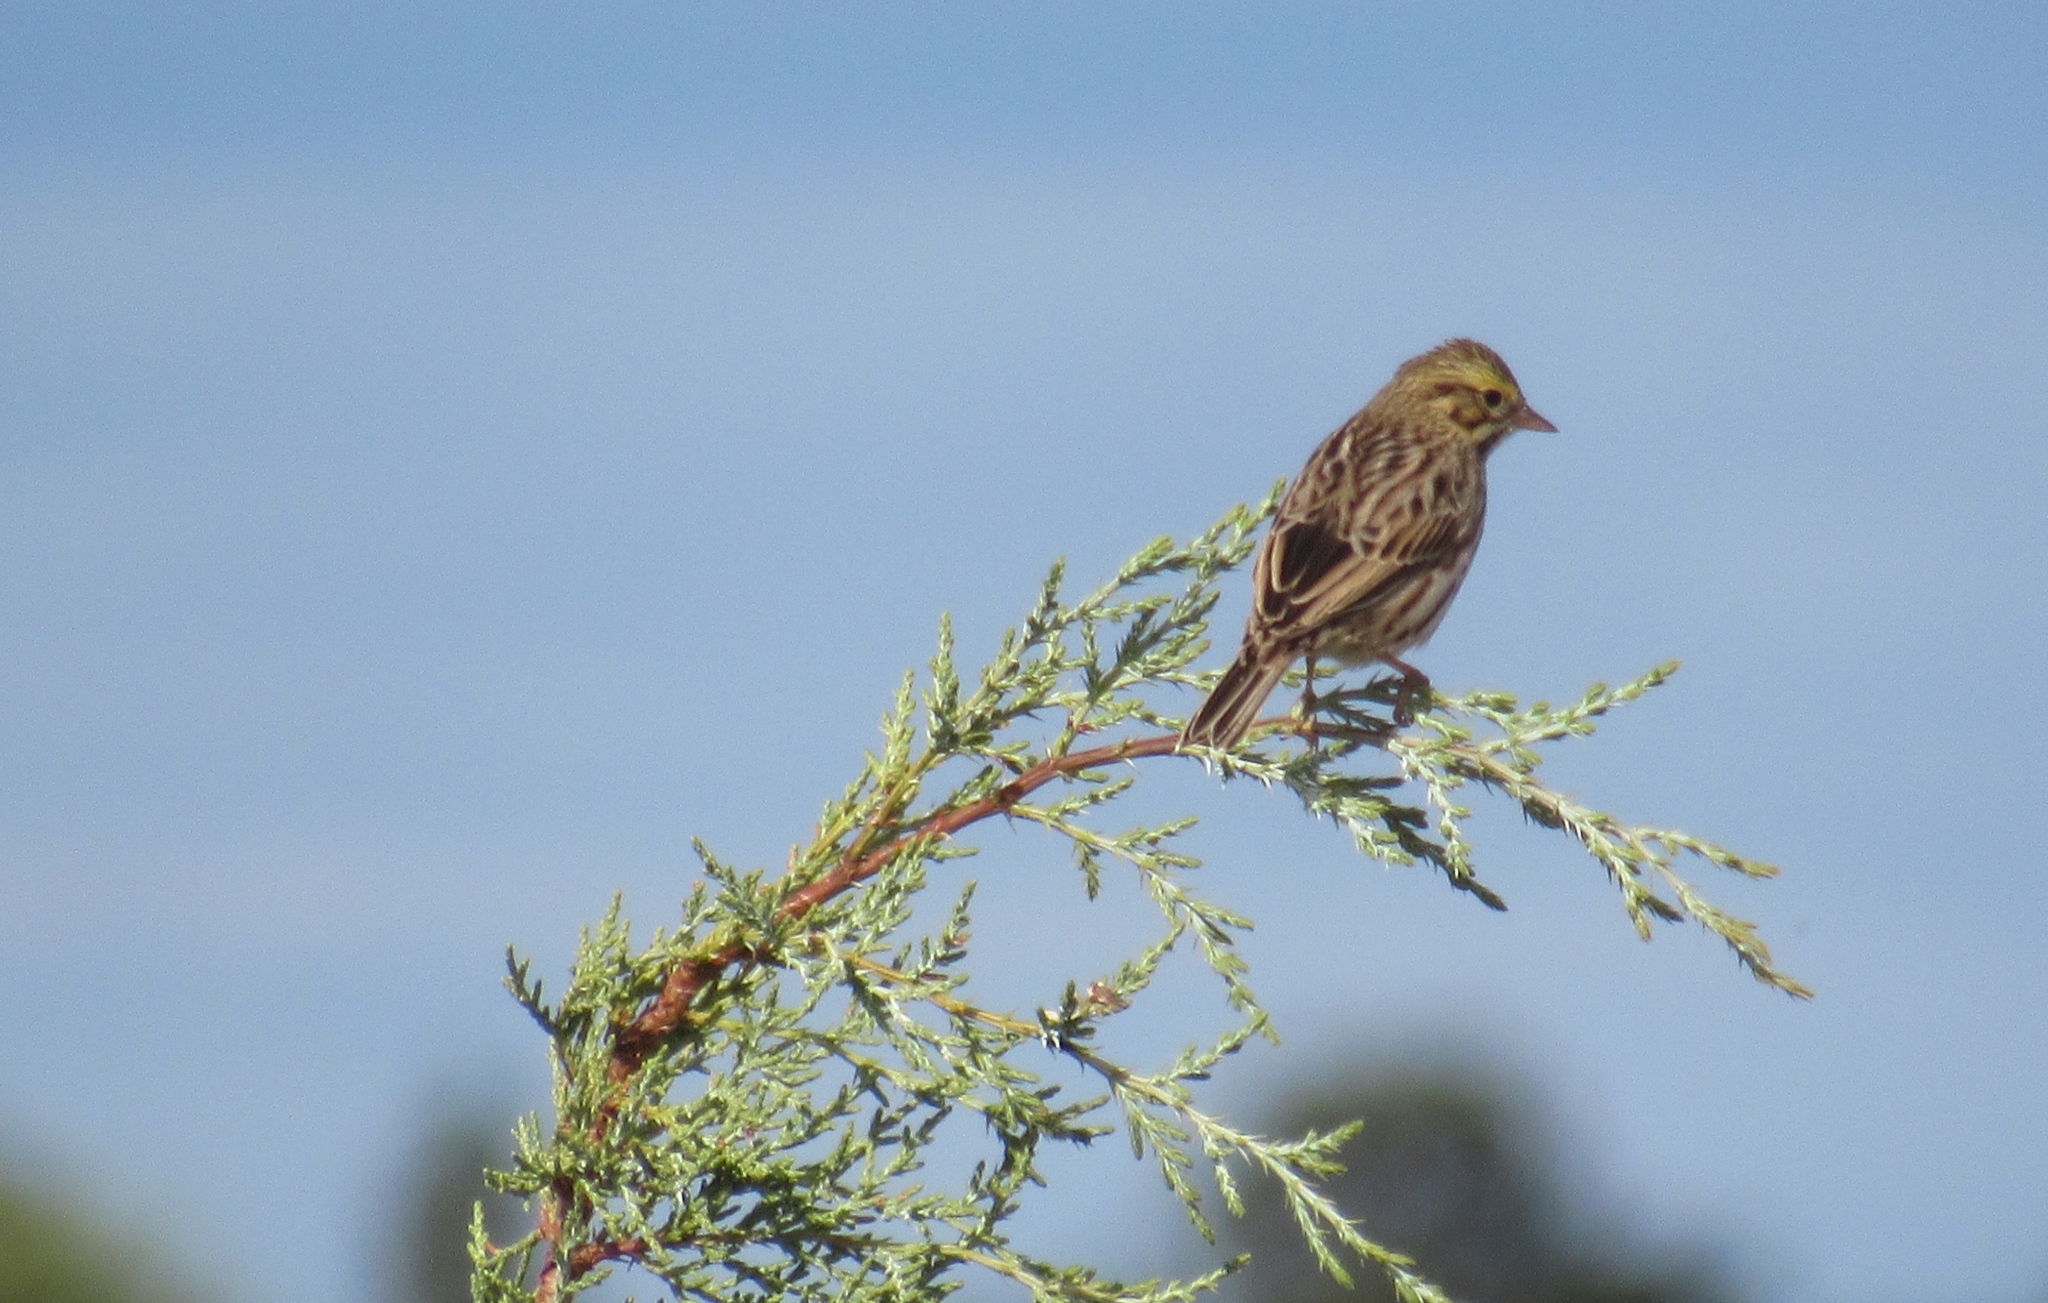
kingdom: Animalia
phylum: Chordata
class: Aves
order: Passeriformes
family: Passerellidae
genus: Passerculus
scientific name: Passerculus sandwichensis
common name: Savannah sparrow
